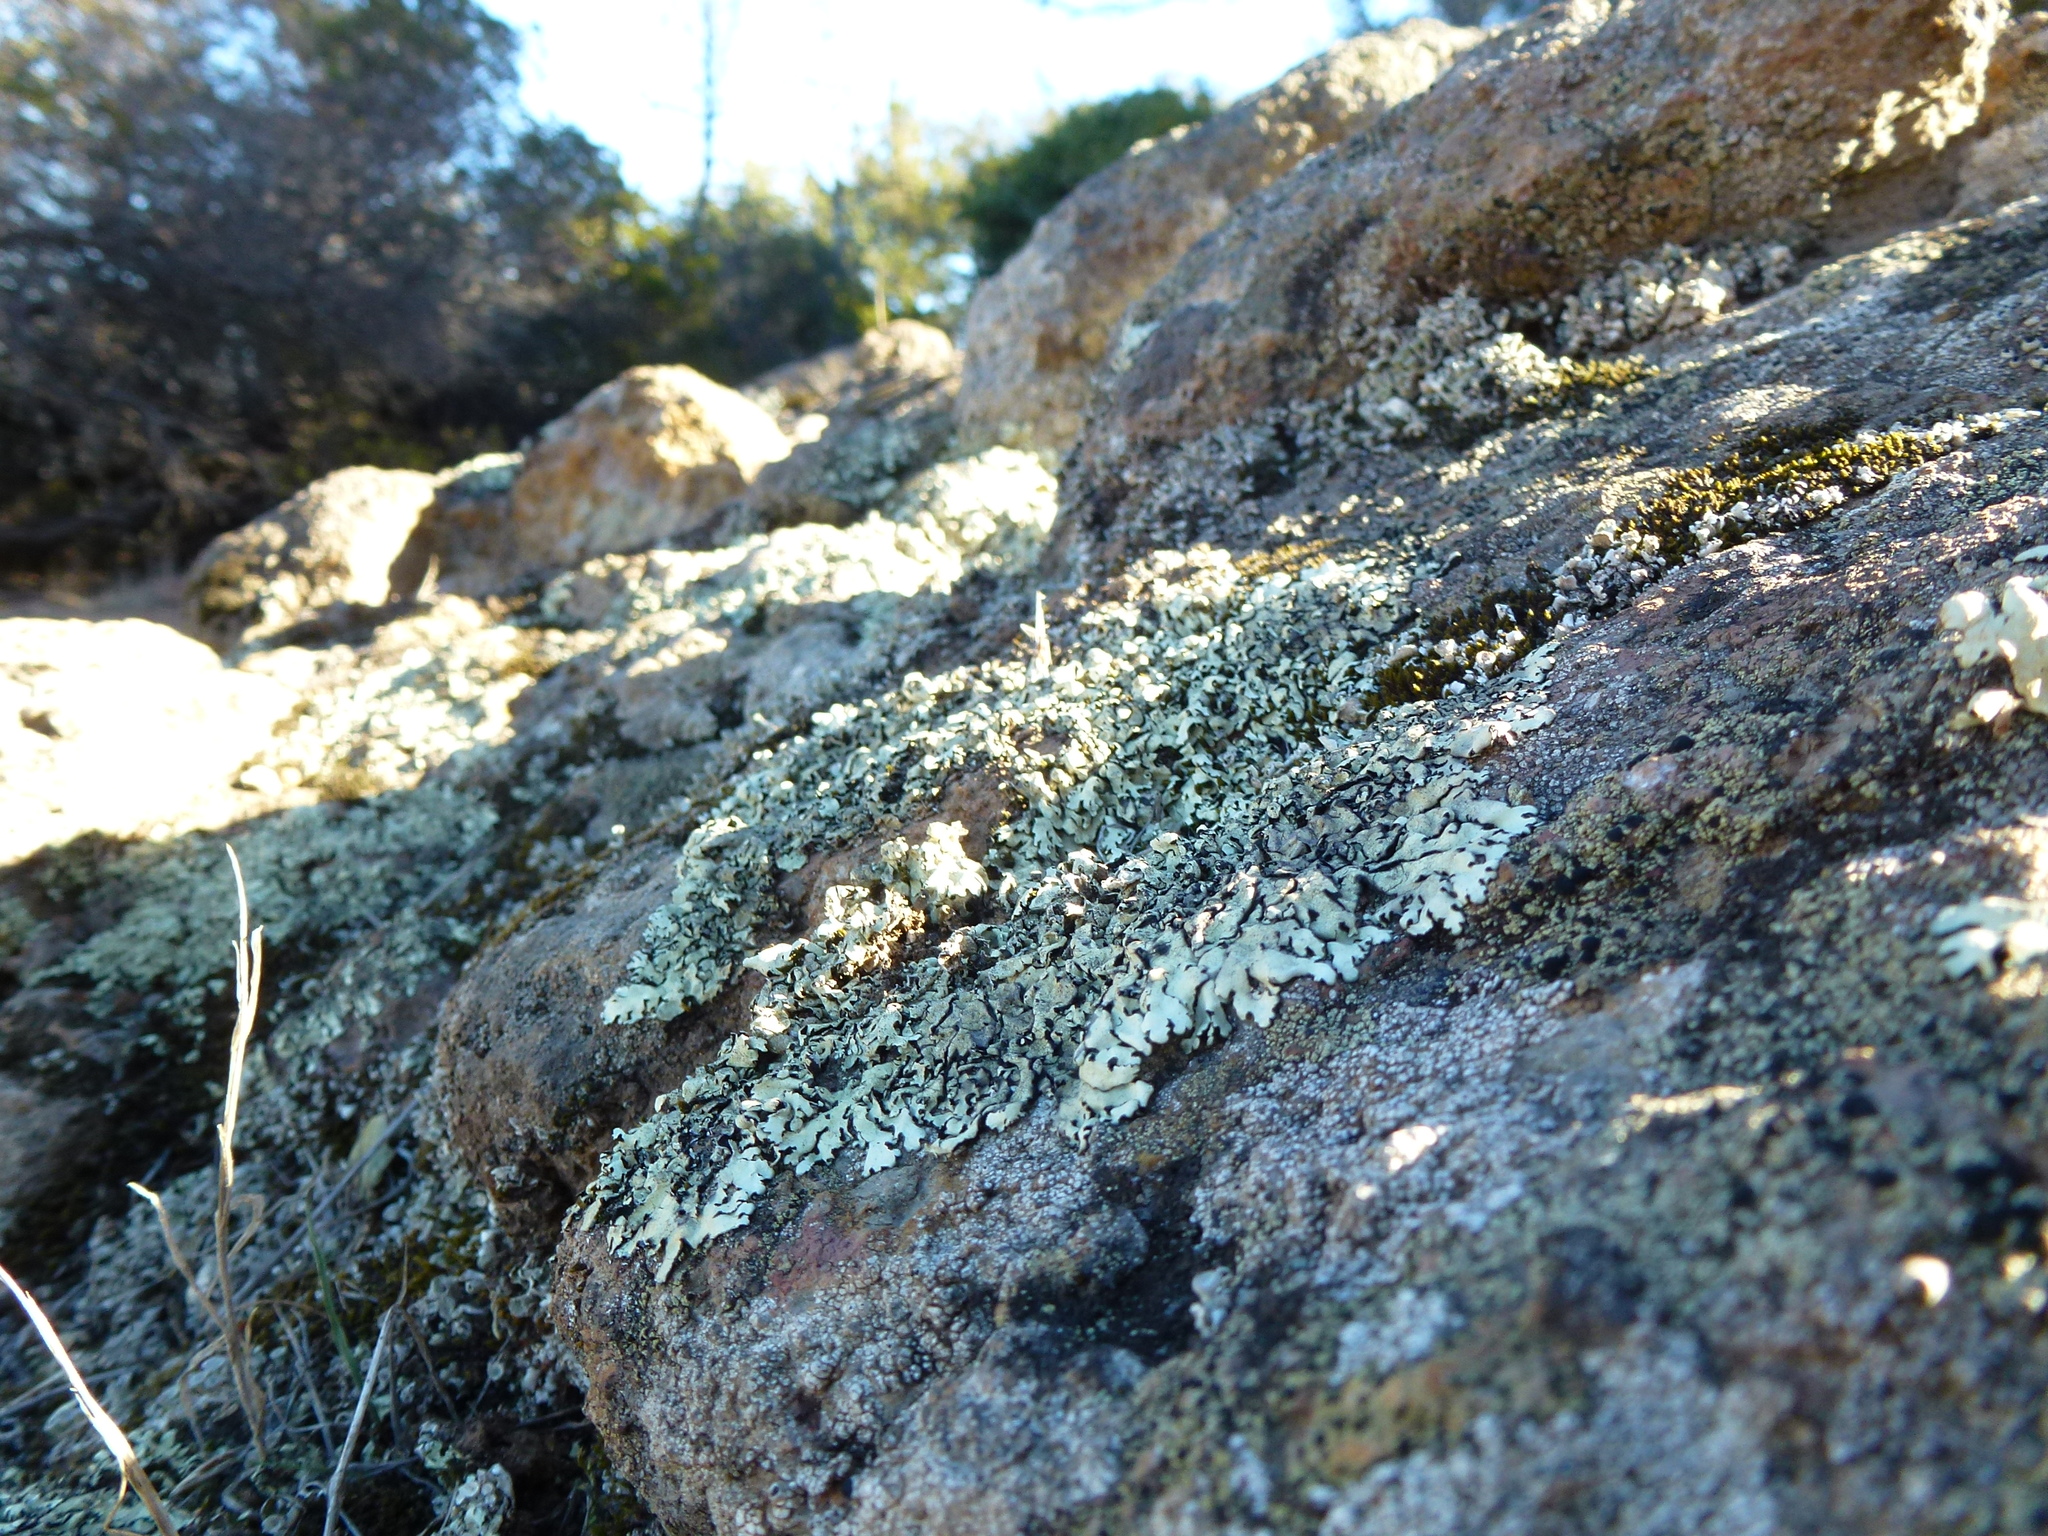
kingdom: Fungi
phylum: Ascomycota
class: Lecanoromycetes
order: Lecanorales
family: Parmeliaceae
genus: Xanthoparmelia
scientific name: Xanthoparmelia cumberlandia
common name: Cumberland rock shield
